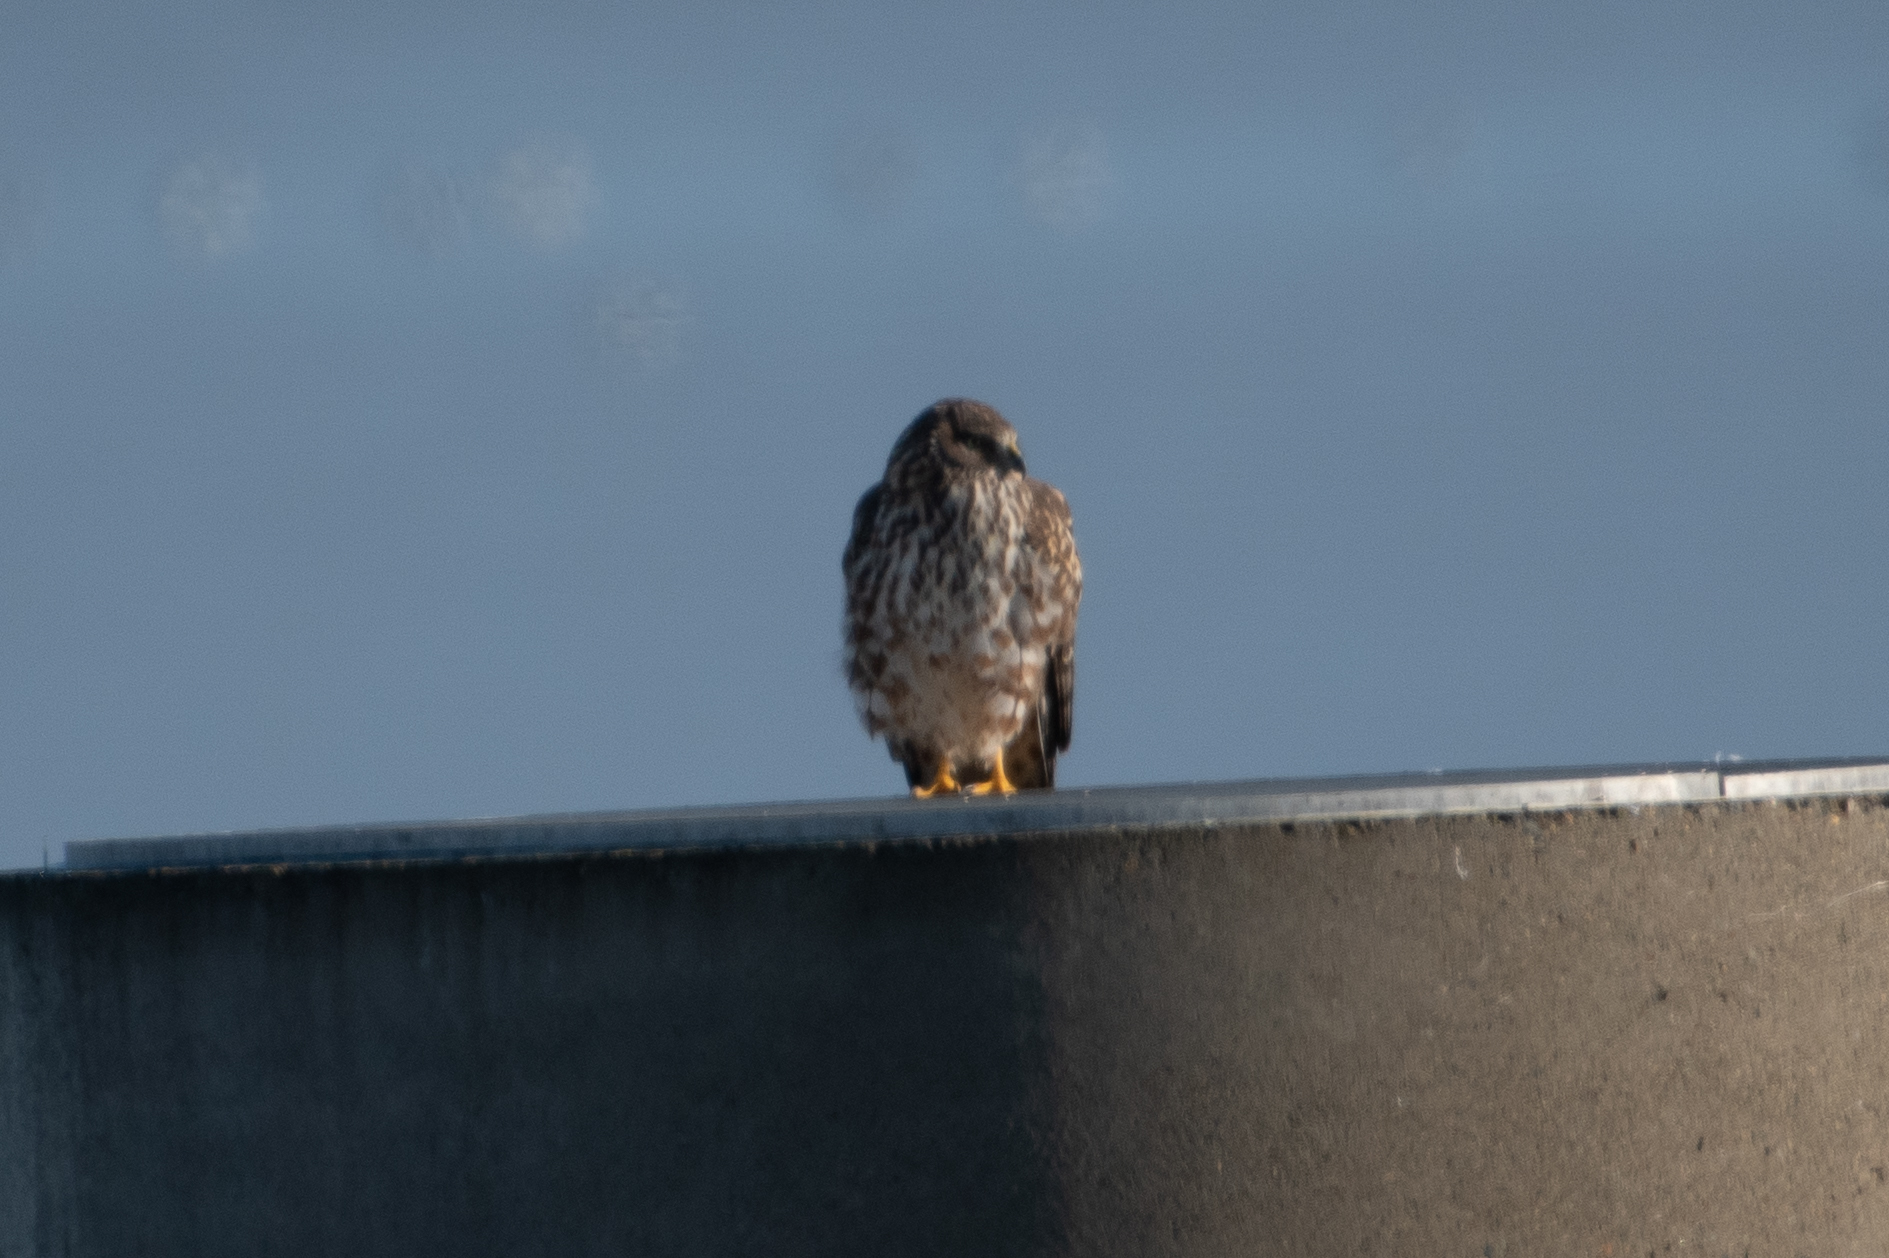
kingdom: Animalia
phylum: Chordata
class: Aves
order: Accipitriformes
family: Accipitridae
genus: Circus
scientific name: Circus cyaneus
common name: Hen harrier
